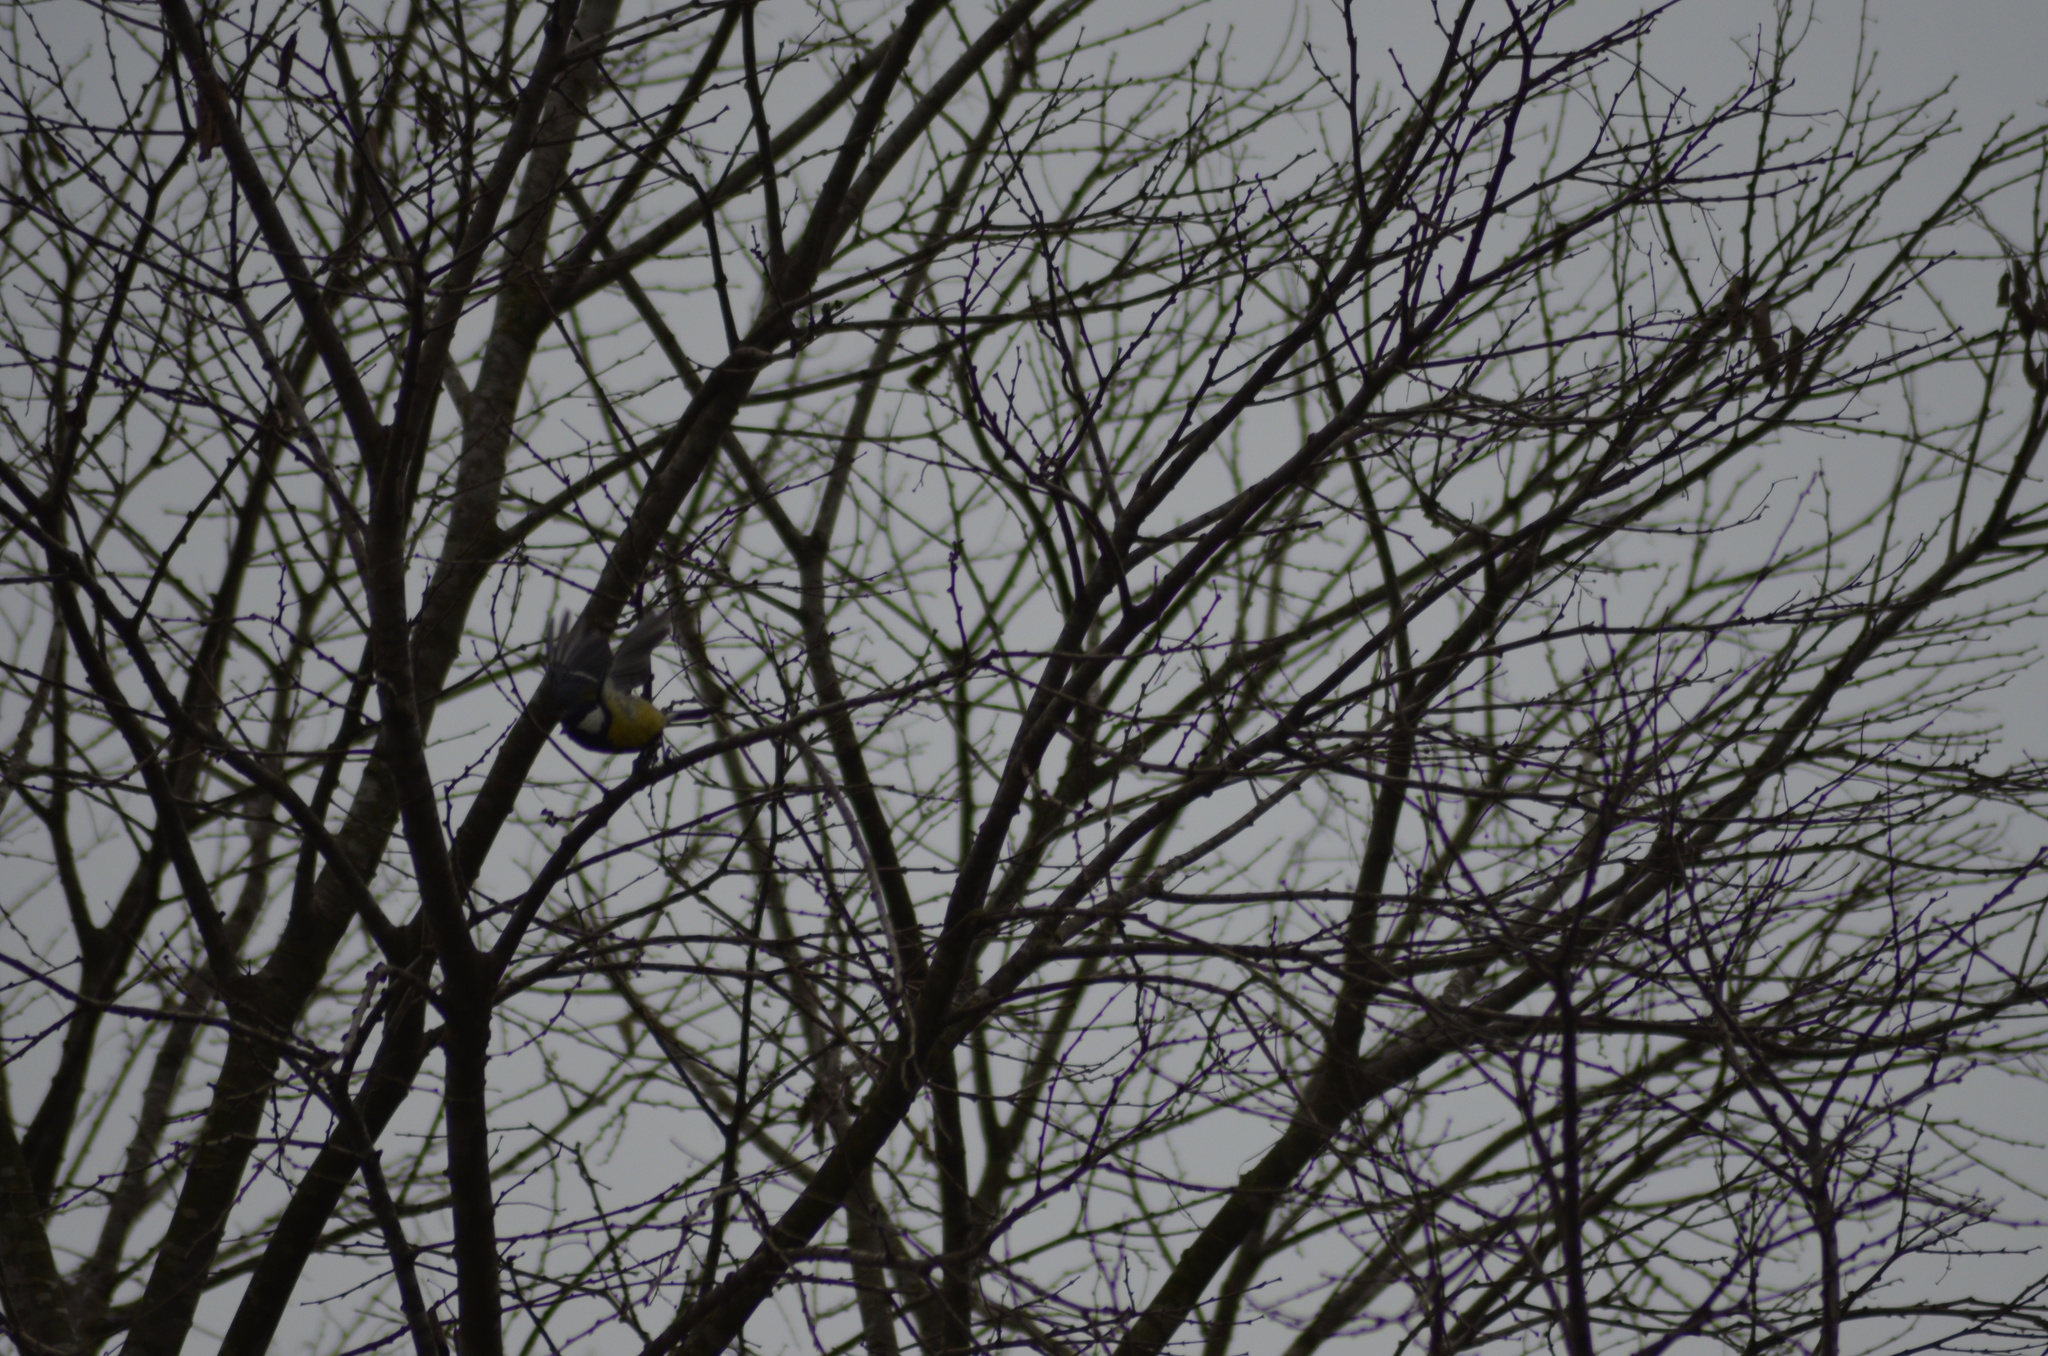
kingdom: Animalia
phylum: Chordata
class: Aves
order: Passeriformes
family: Paridae
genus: Parus
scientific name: Parus major
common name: Great tit
